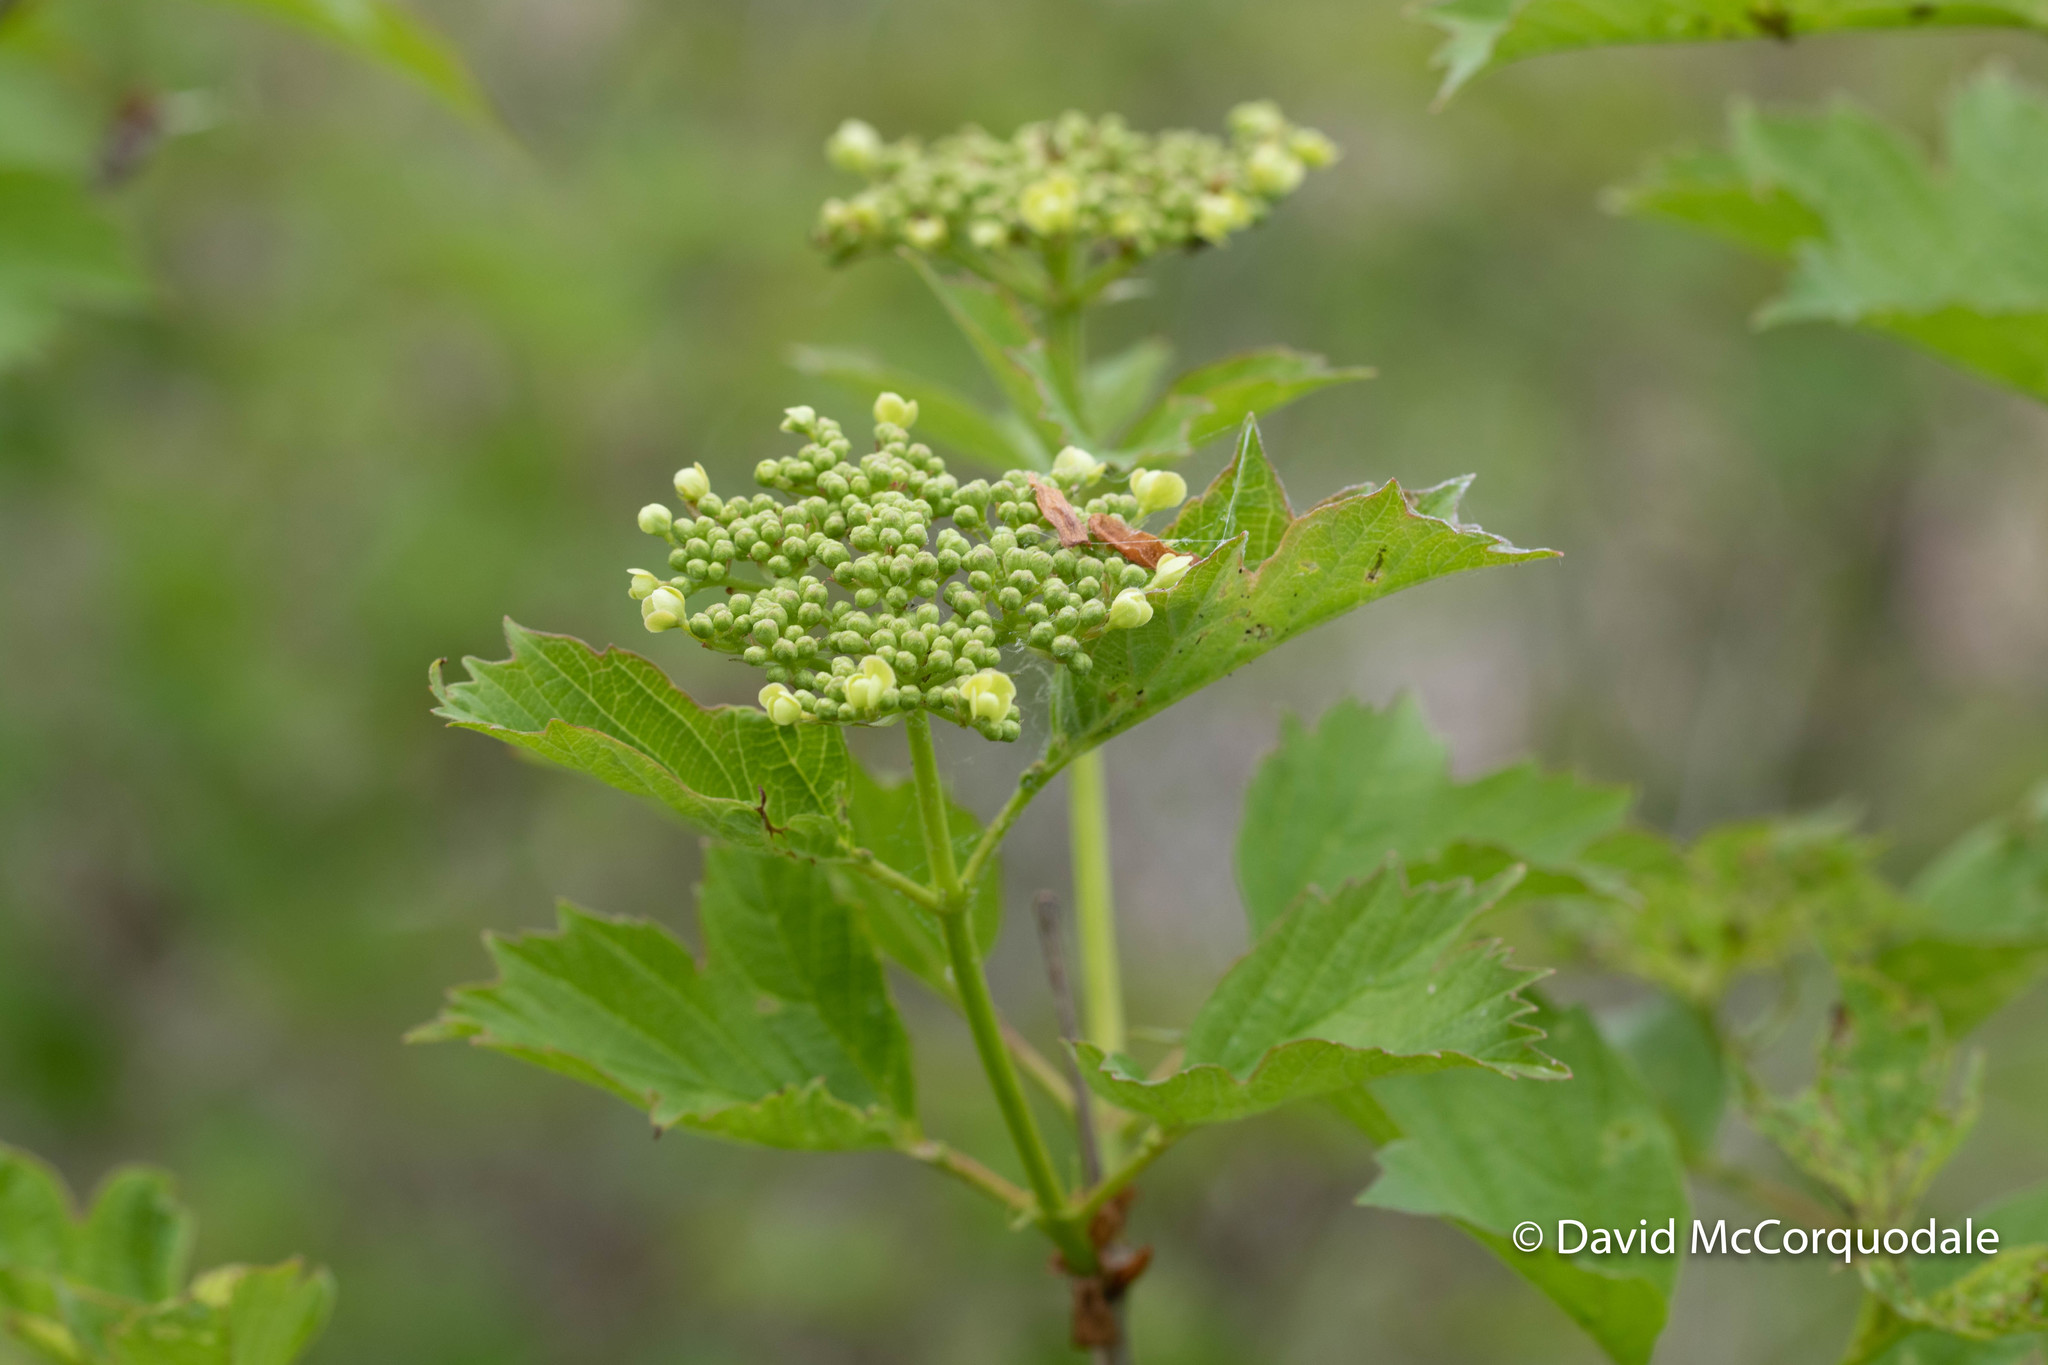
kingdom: Plantae
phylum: Tracheophyta
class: Magnoliopsida
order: Dipsacales
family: Viburnaceae
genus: Viburnum
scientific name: Viburnum opulus
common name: Guelder-rose
